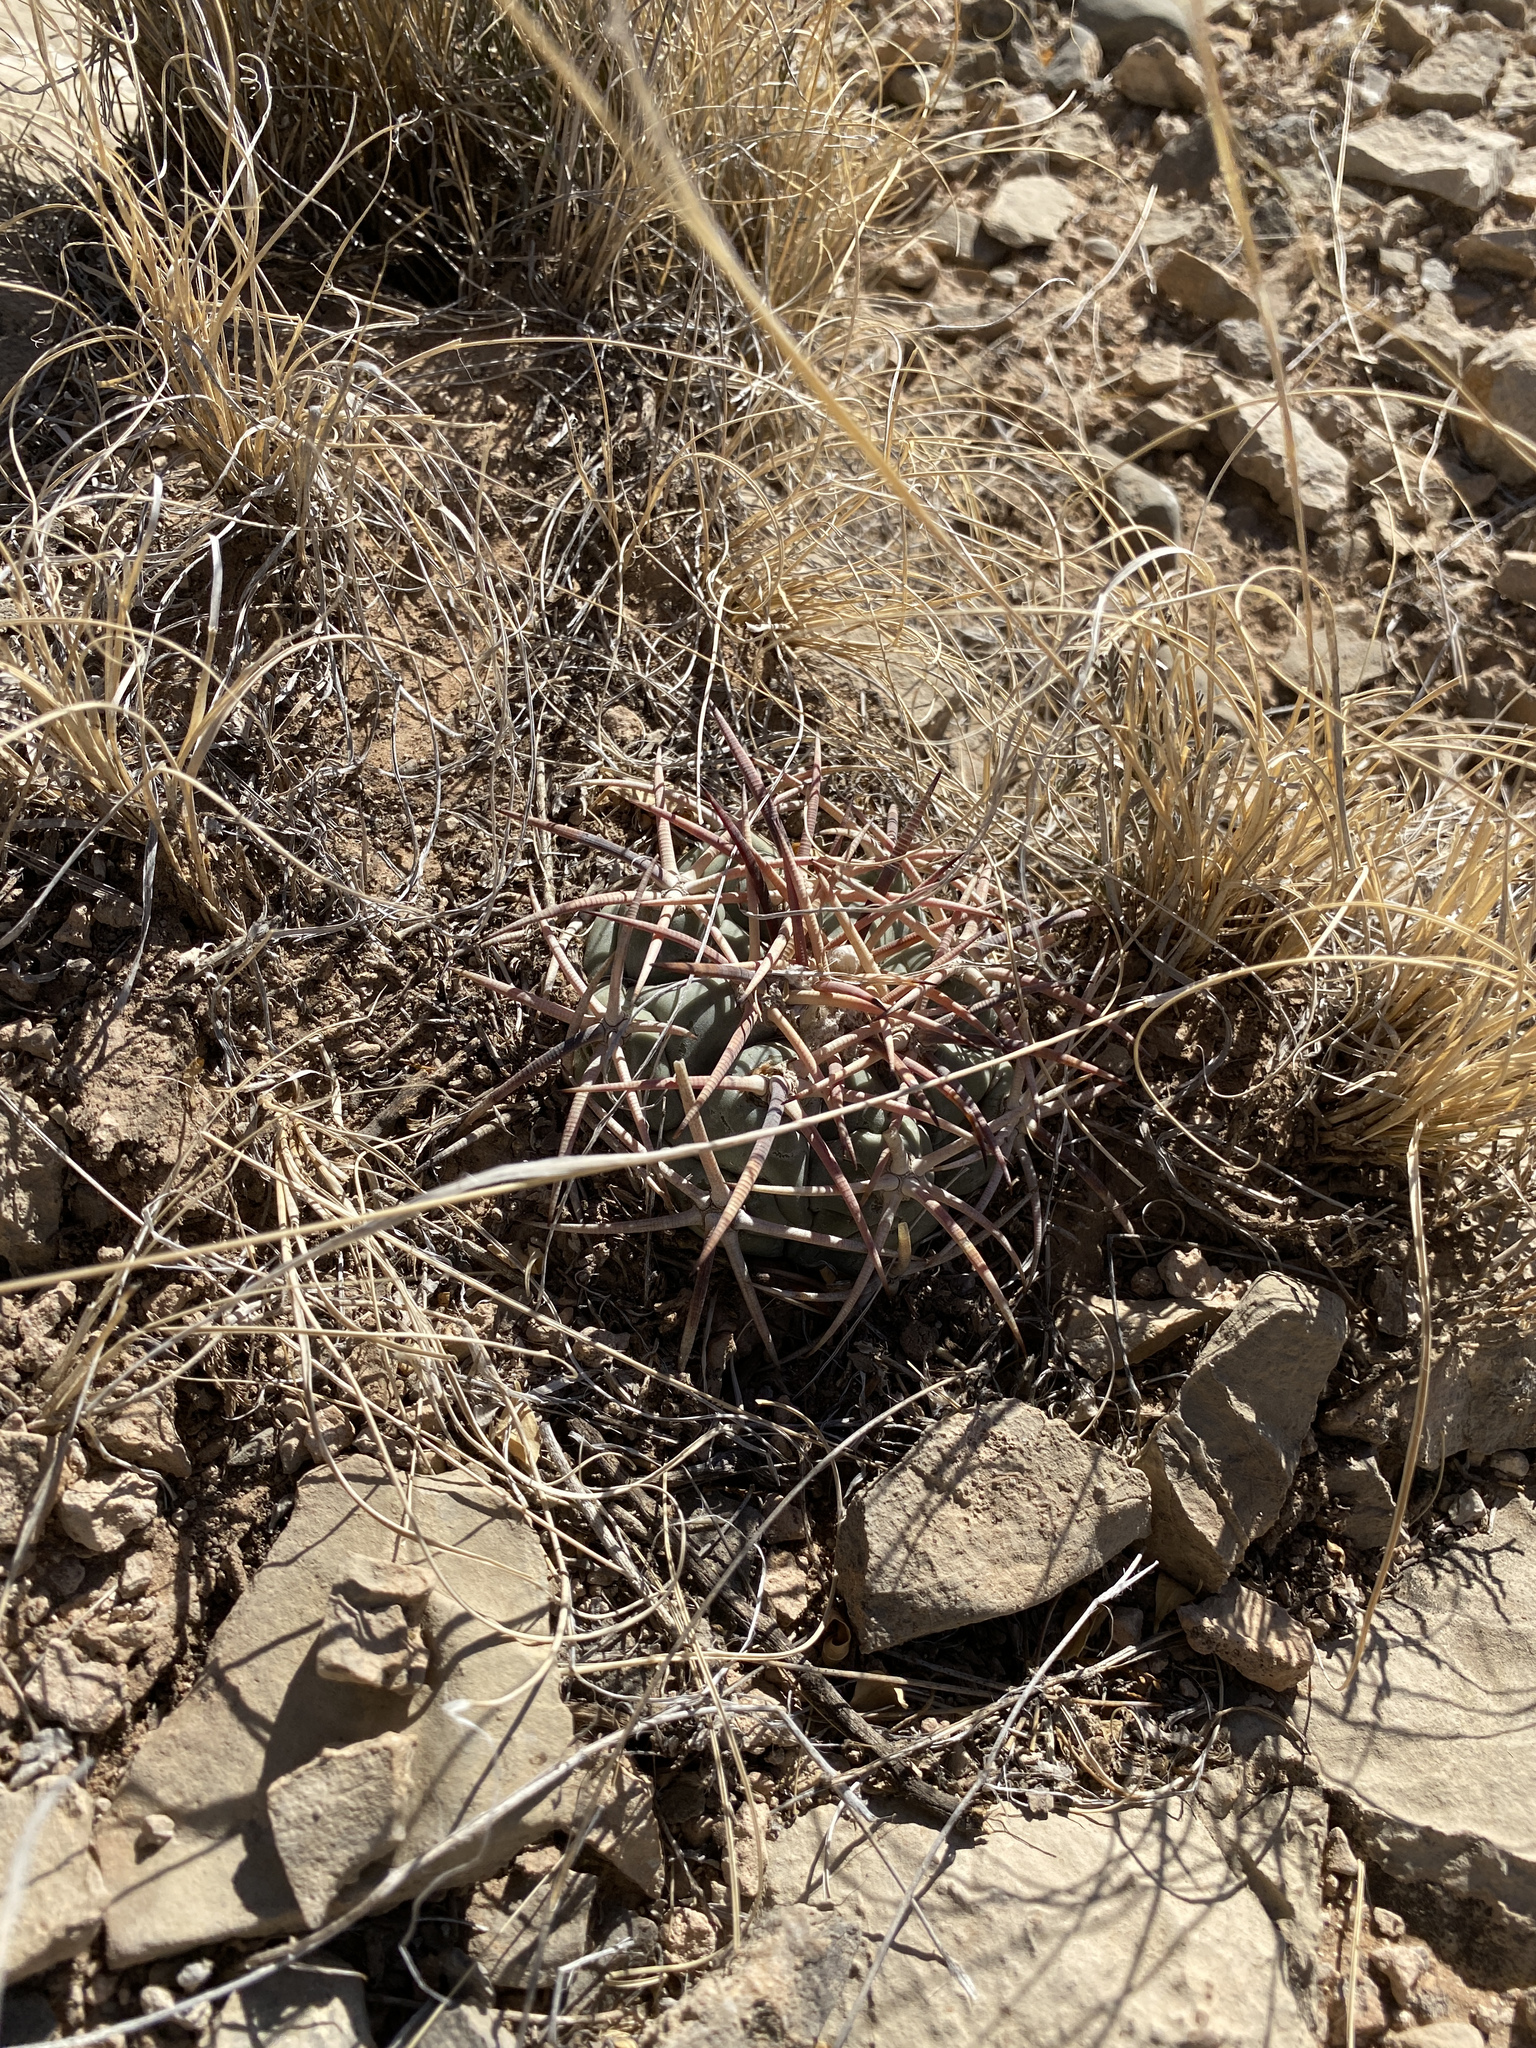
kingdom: Plantae
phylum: Tracheophyta
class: Magnoliopsida
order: Caryophyllales
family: Cactaceae
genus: Echinocactus
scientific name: Echinocactus horizonthalonius
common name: Devilshead
